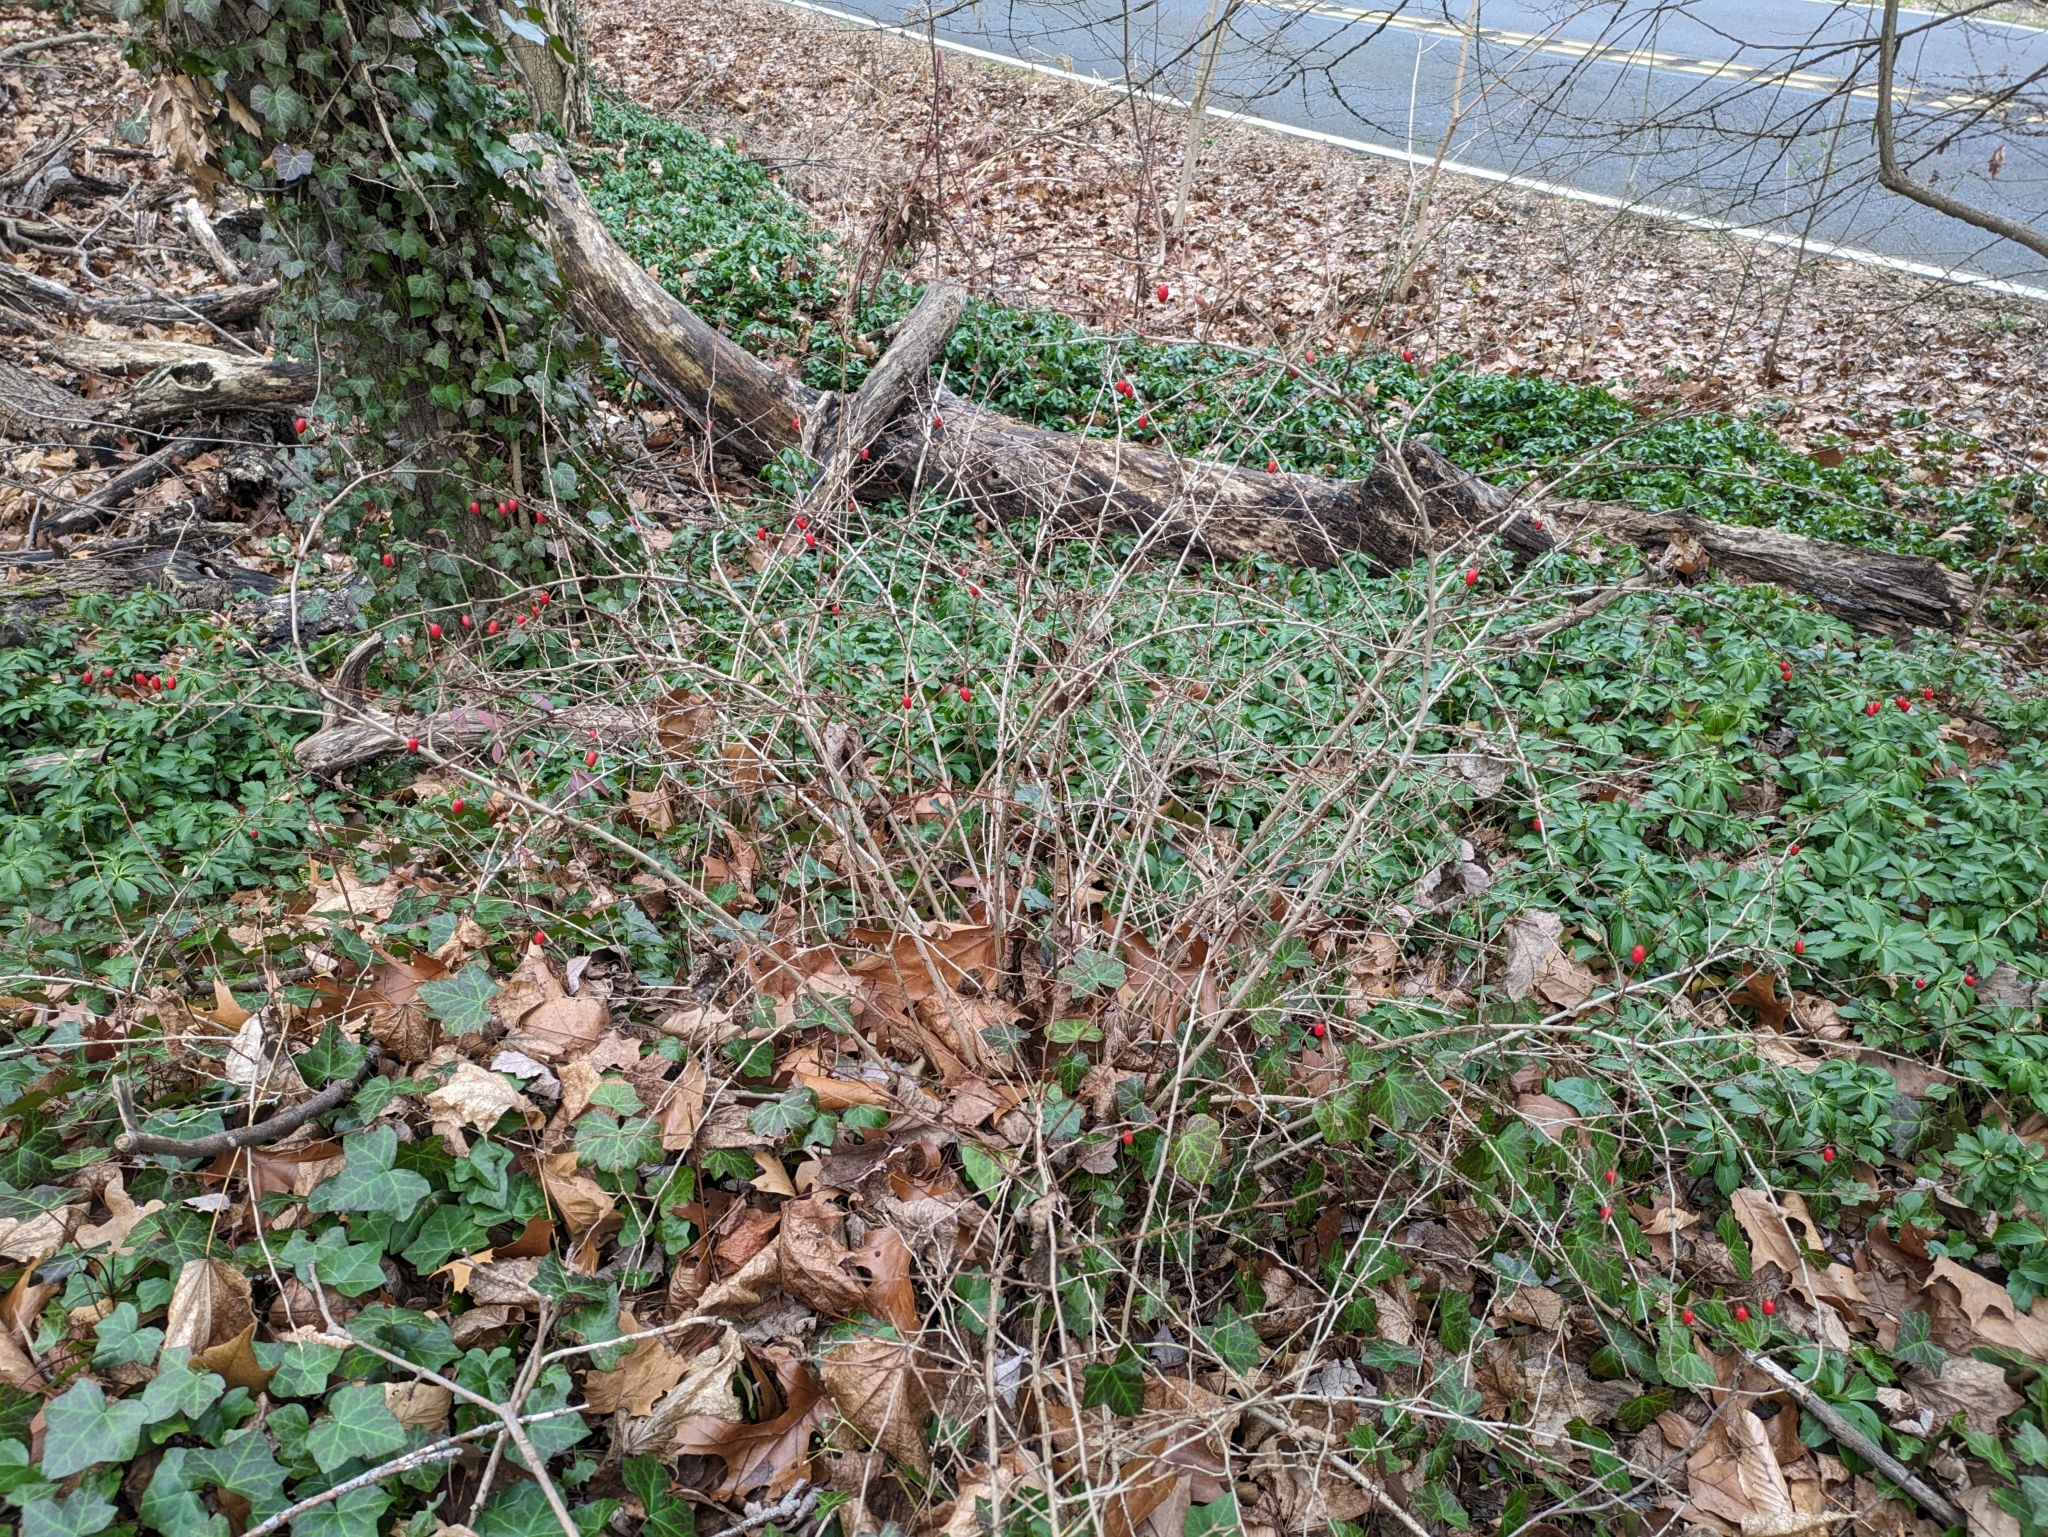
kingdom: Plantae
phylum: Tracheophyta
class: Magnoliopsida
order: Ranunculales
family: Berberidaceae
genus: Berberis
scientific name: Berberis thunbergii
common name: Japanese barberry
